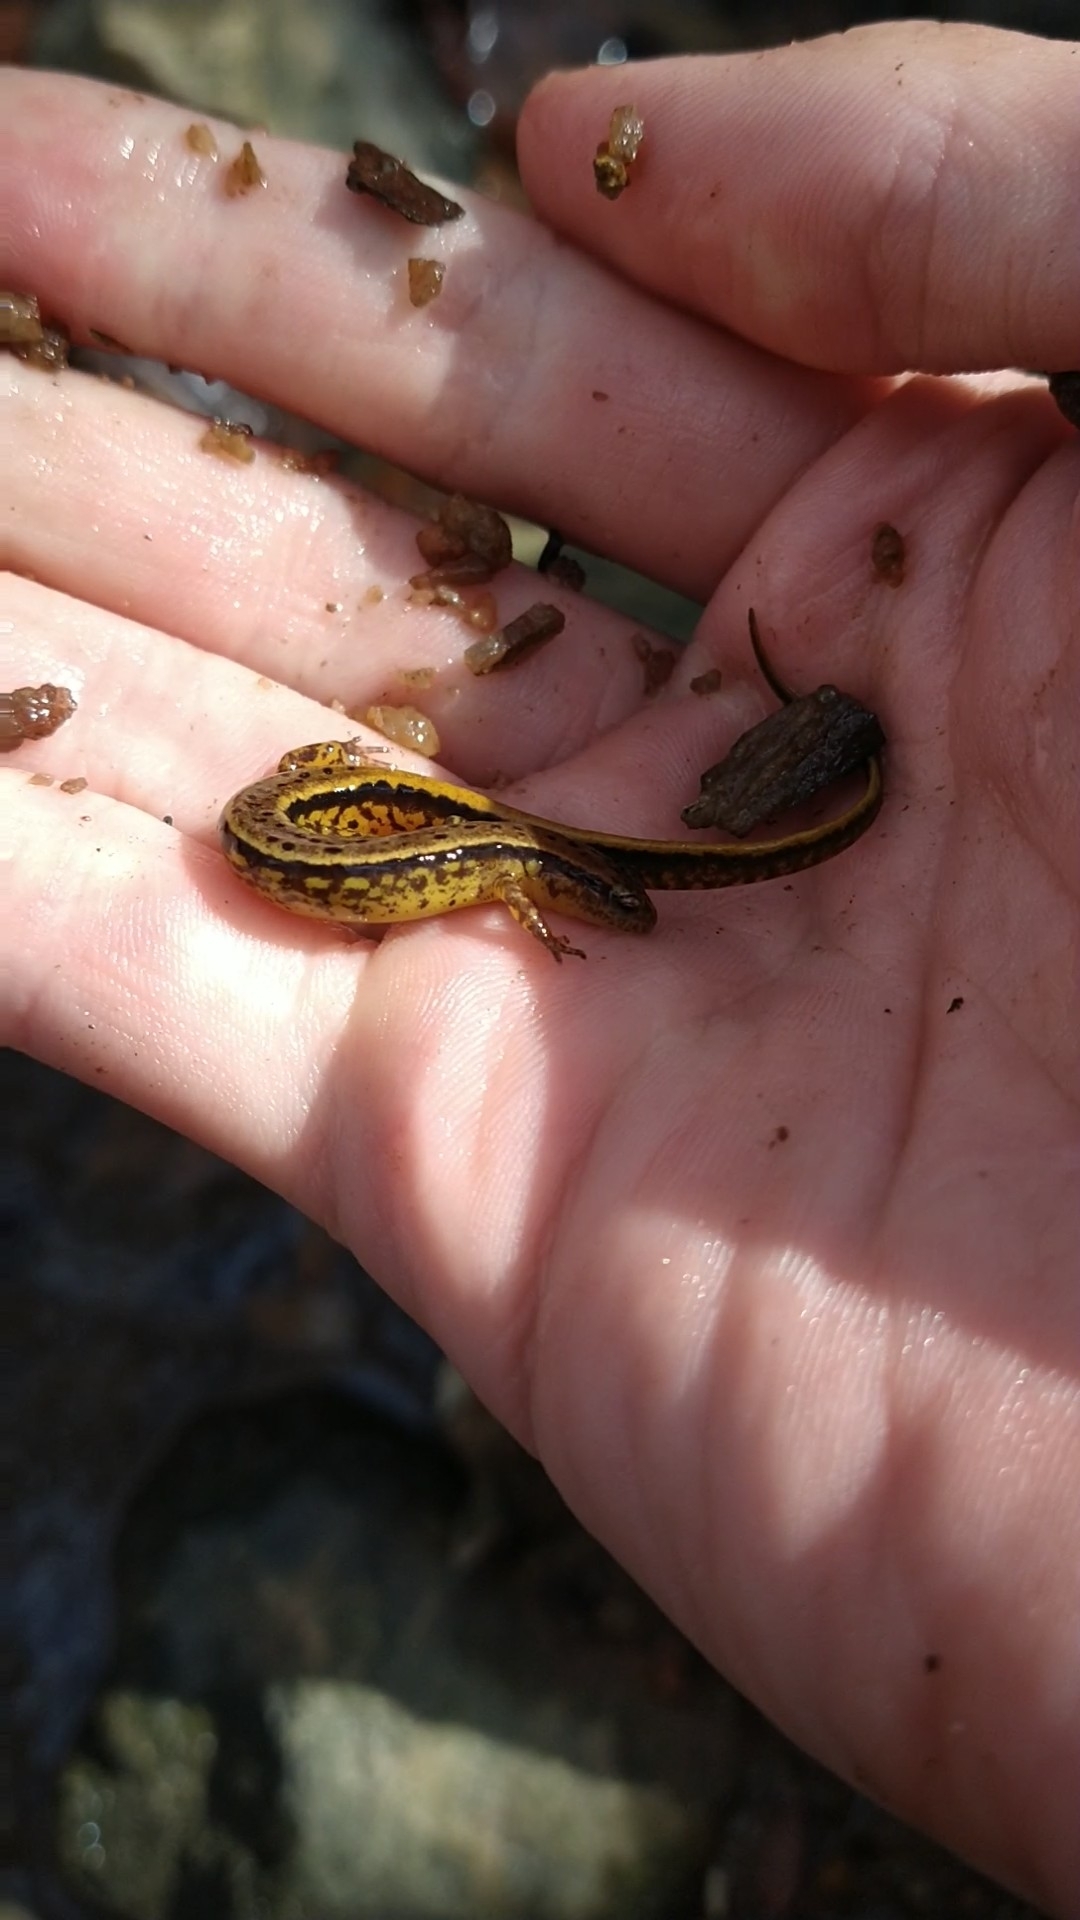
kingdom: Animalia
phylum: Chordata
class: Amphibia
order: Caudata
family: Plethodontidae
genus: Eurycea
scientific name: Eurycea cirrigera
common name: Southern two-lined salamander
